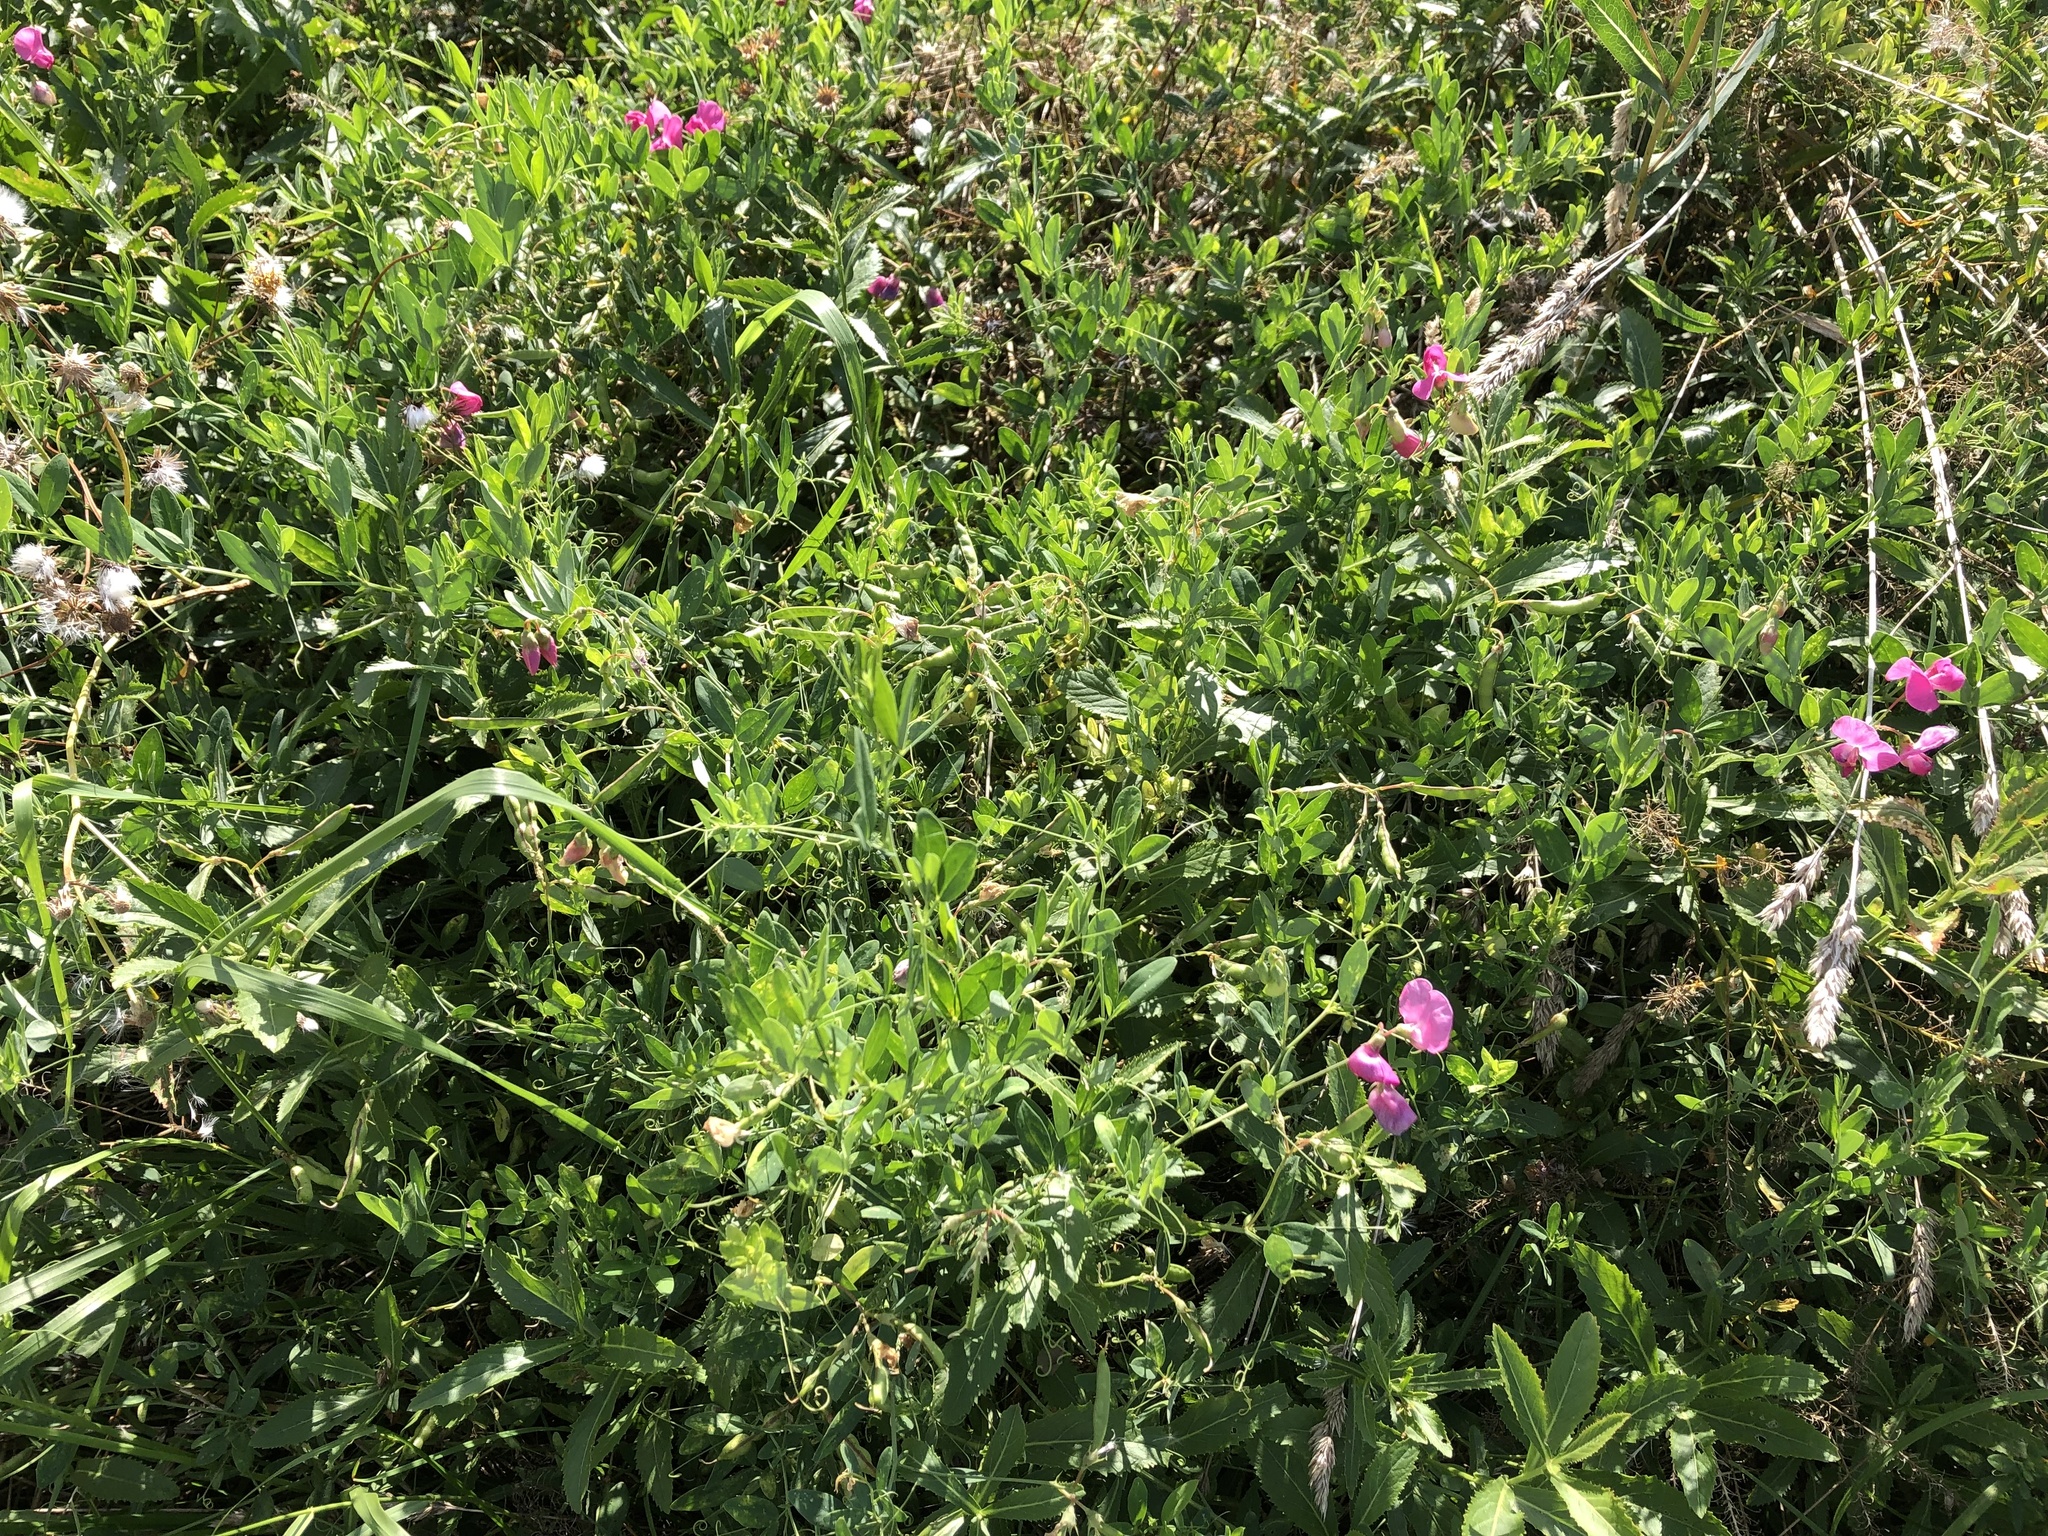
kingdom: Plantae
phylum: Tracheophyta
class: Magnoliopsida
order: Fabales
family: Fabaceae
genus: Lathyrus
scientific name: Lathyrus tuberosus
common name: Tuberous pea
